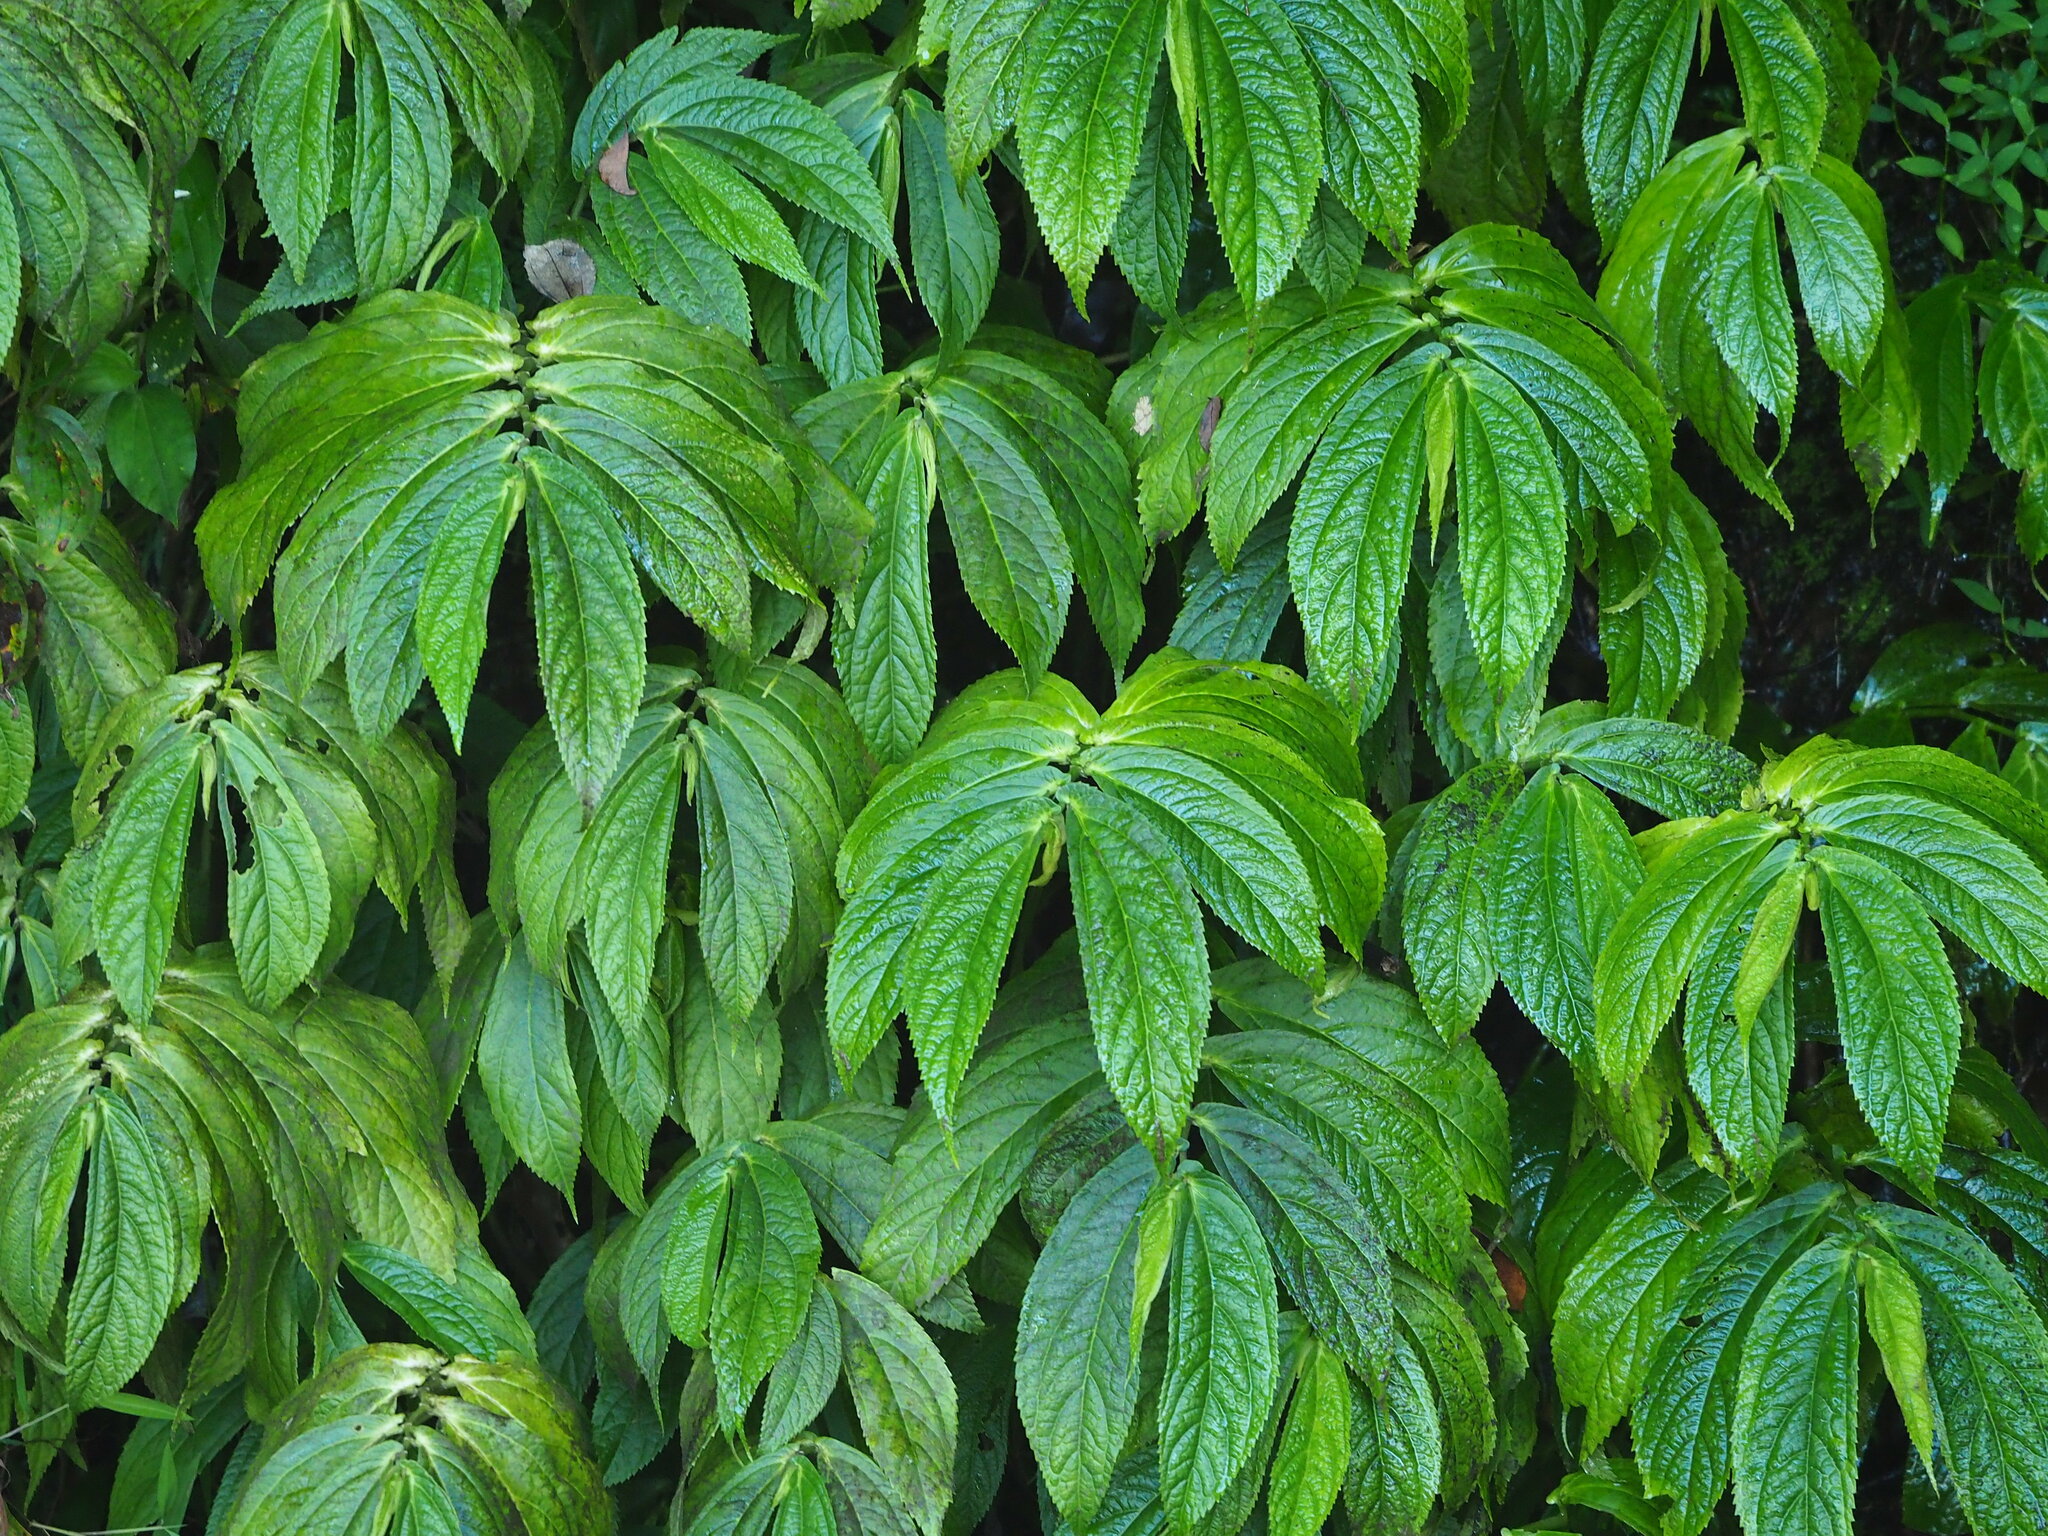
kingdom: Plantae
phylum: Tracheophyta
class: Magnoliopsida
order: Rosales
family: Urticaceae
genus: Elatostema
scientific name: Elatostema platyphyllum
